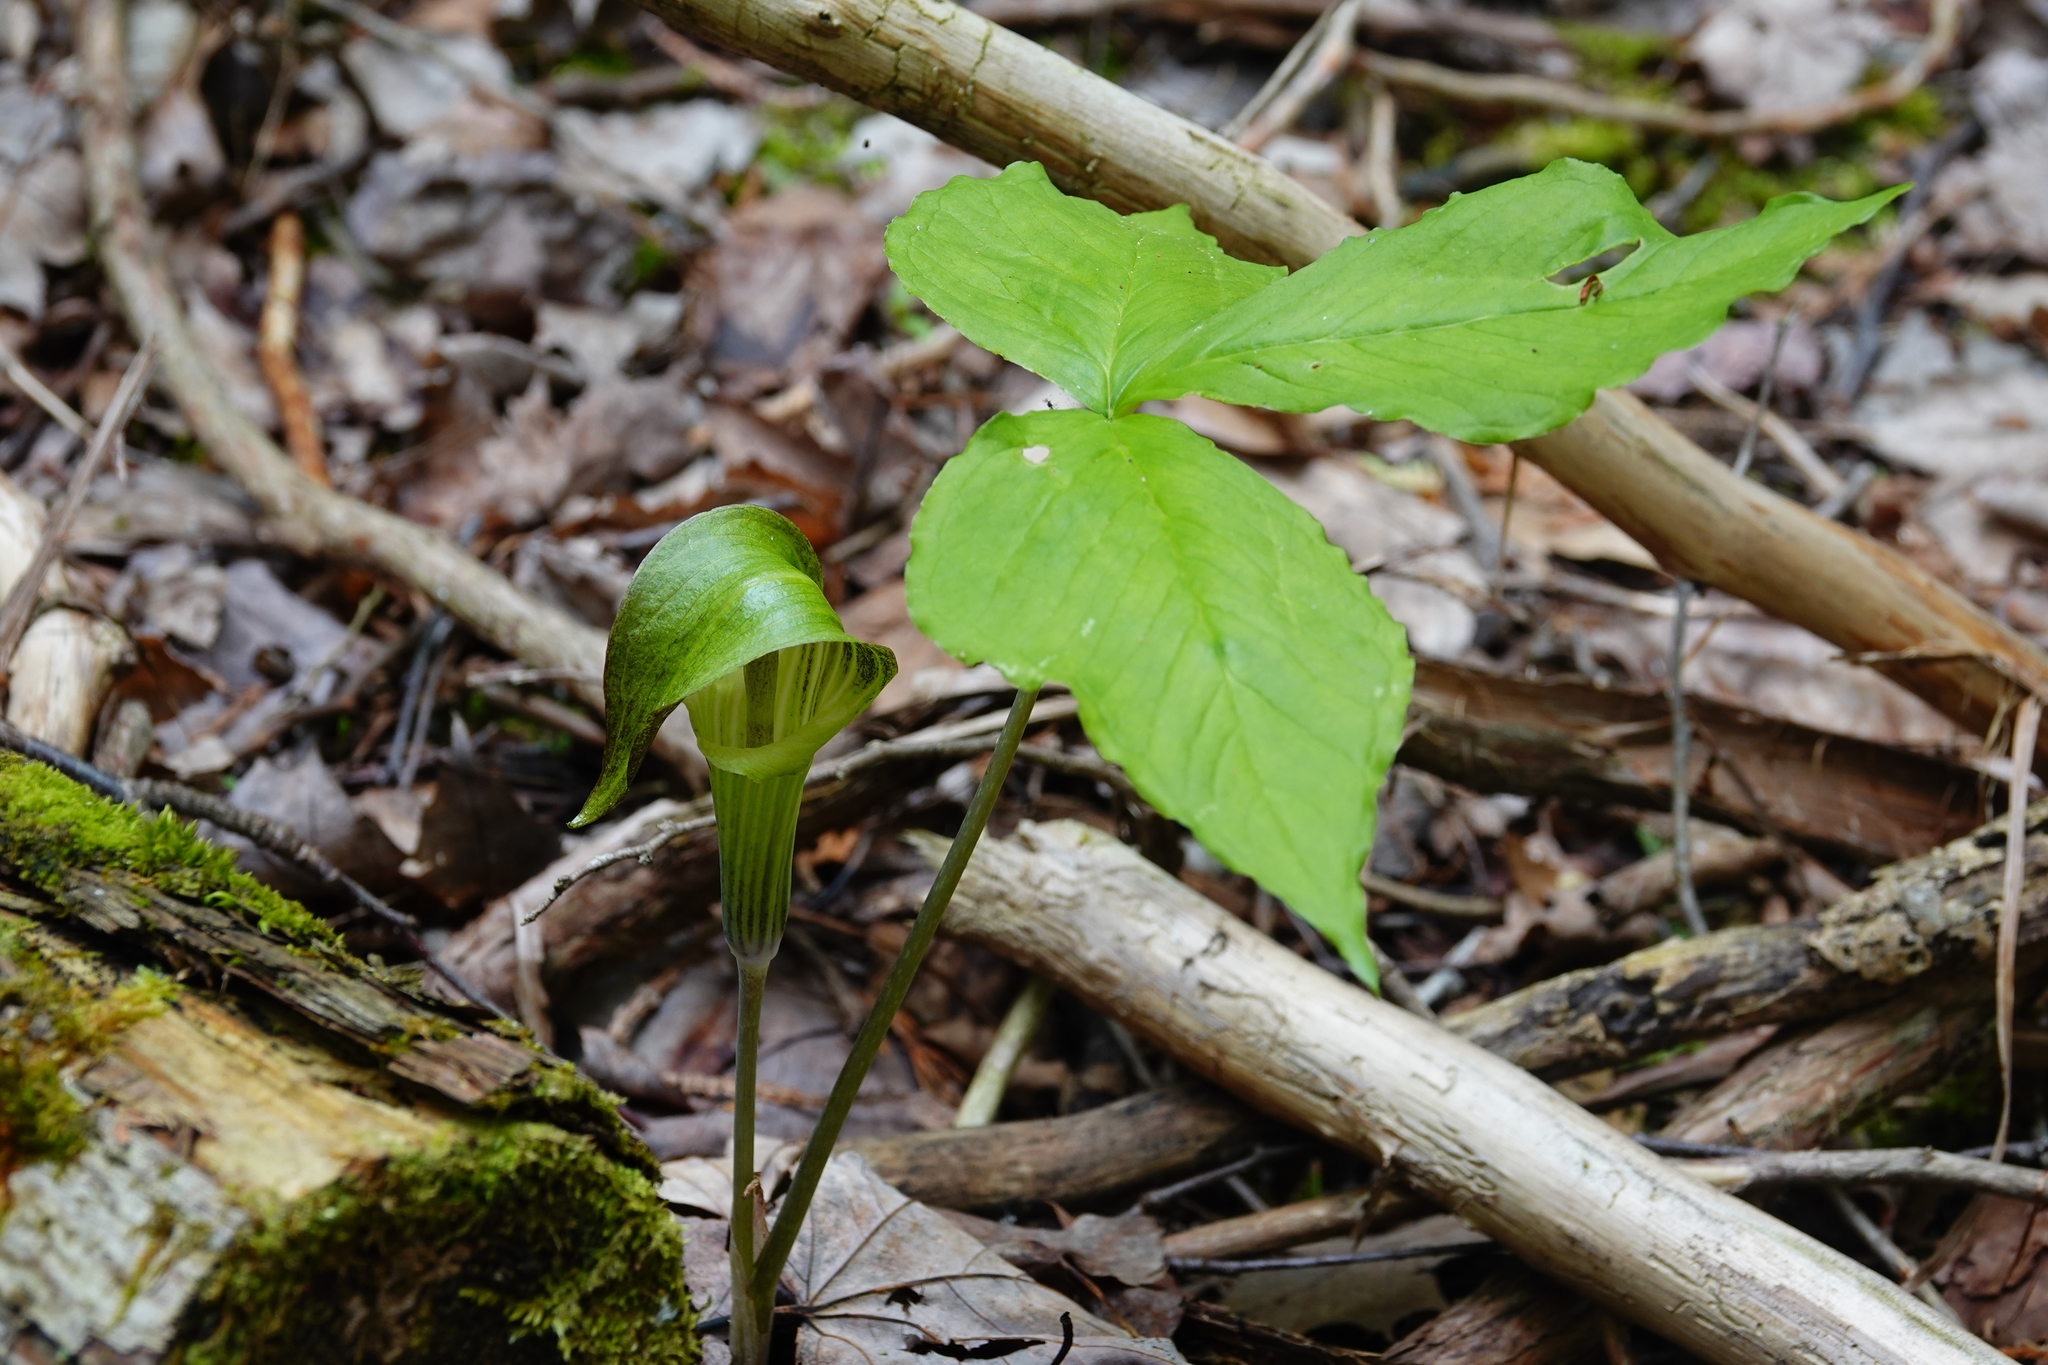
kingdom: Plantae
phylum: Tracheophyta
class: Liliopsida
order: Alismatales
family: Araceae
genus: Arisaema
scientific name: Arisaema triphyllum
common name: Jack-in-the-pulpit
